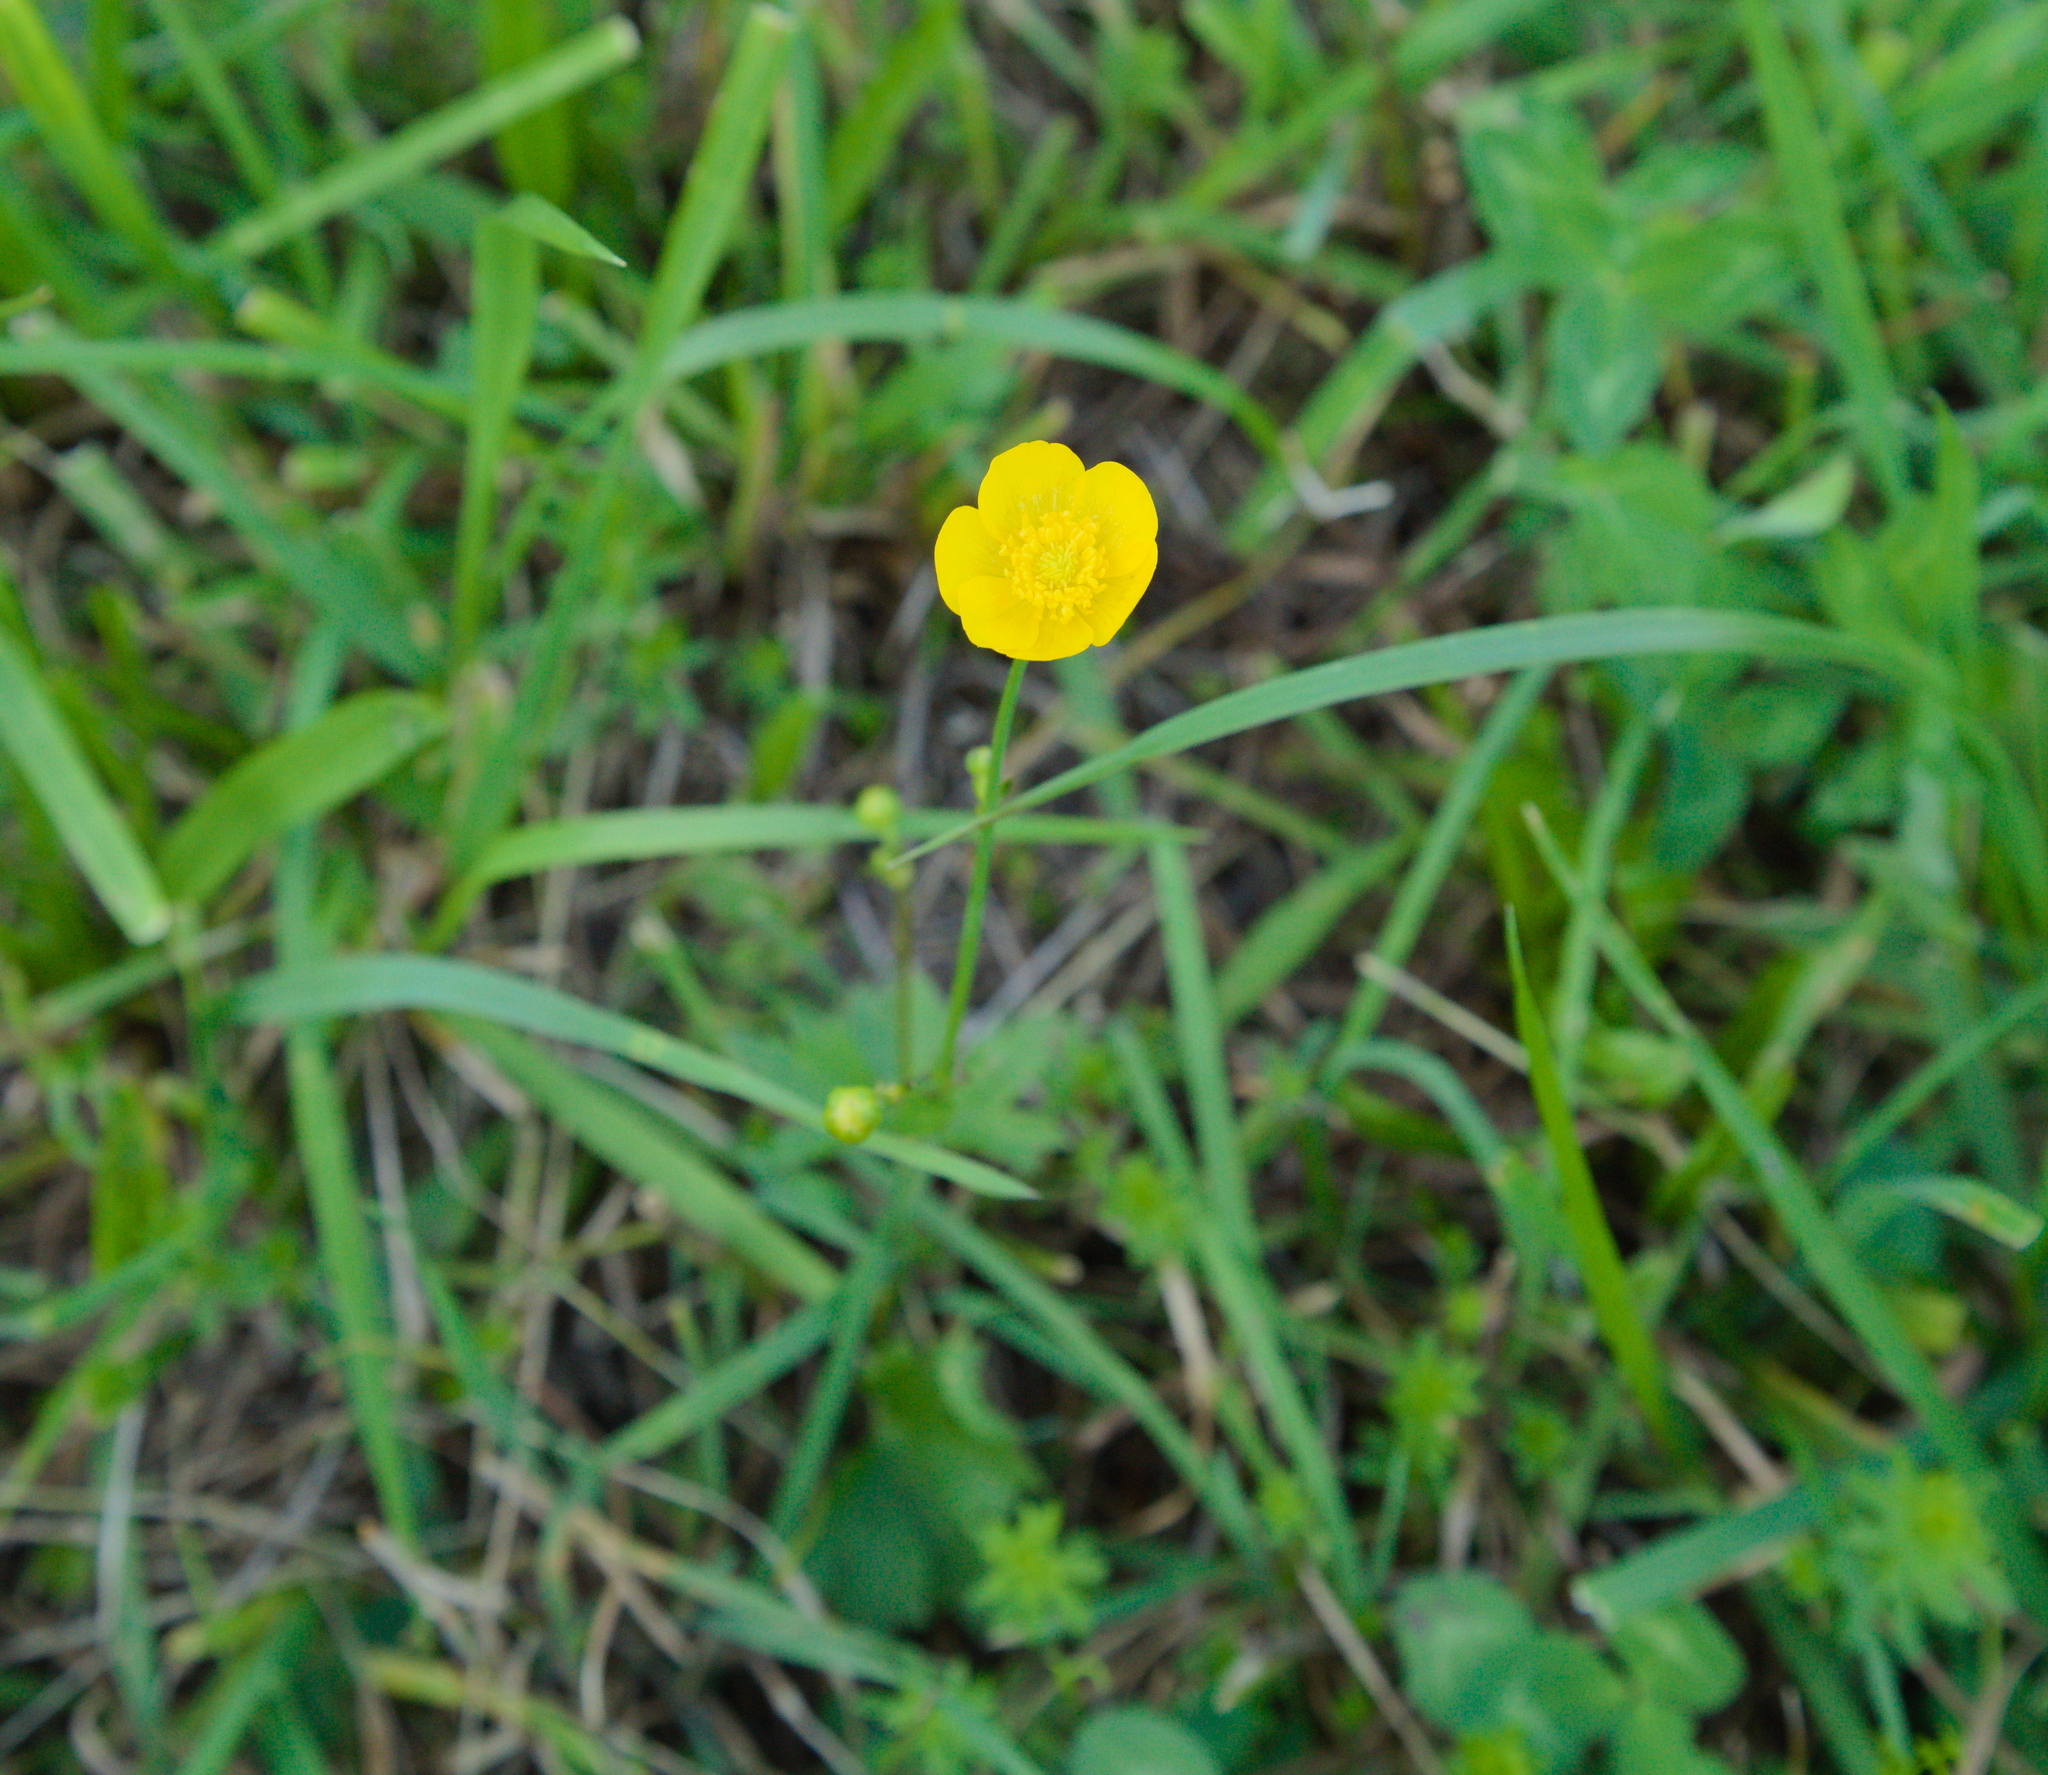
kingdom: Plantae
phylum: Tracheophyta
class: Magnoliopsida
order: Ranunculales
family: Ranunculaceae
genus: Ranunculus
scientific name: Ranunculus acris
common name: Meadow buttercup
